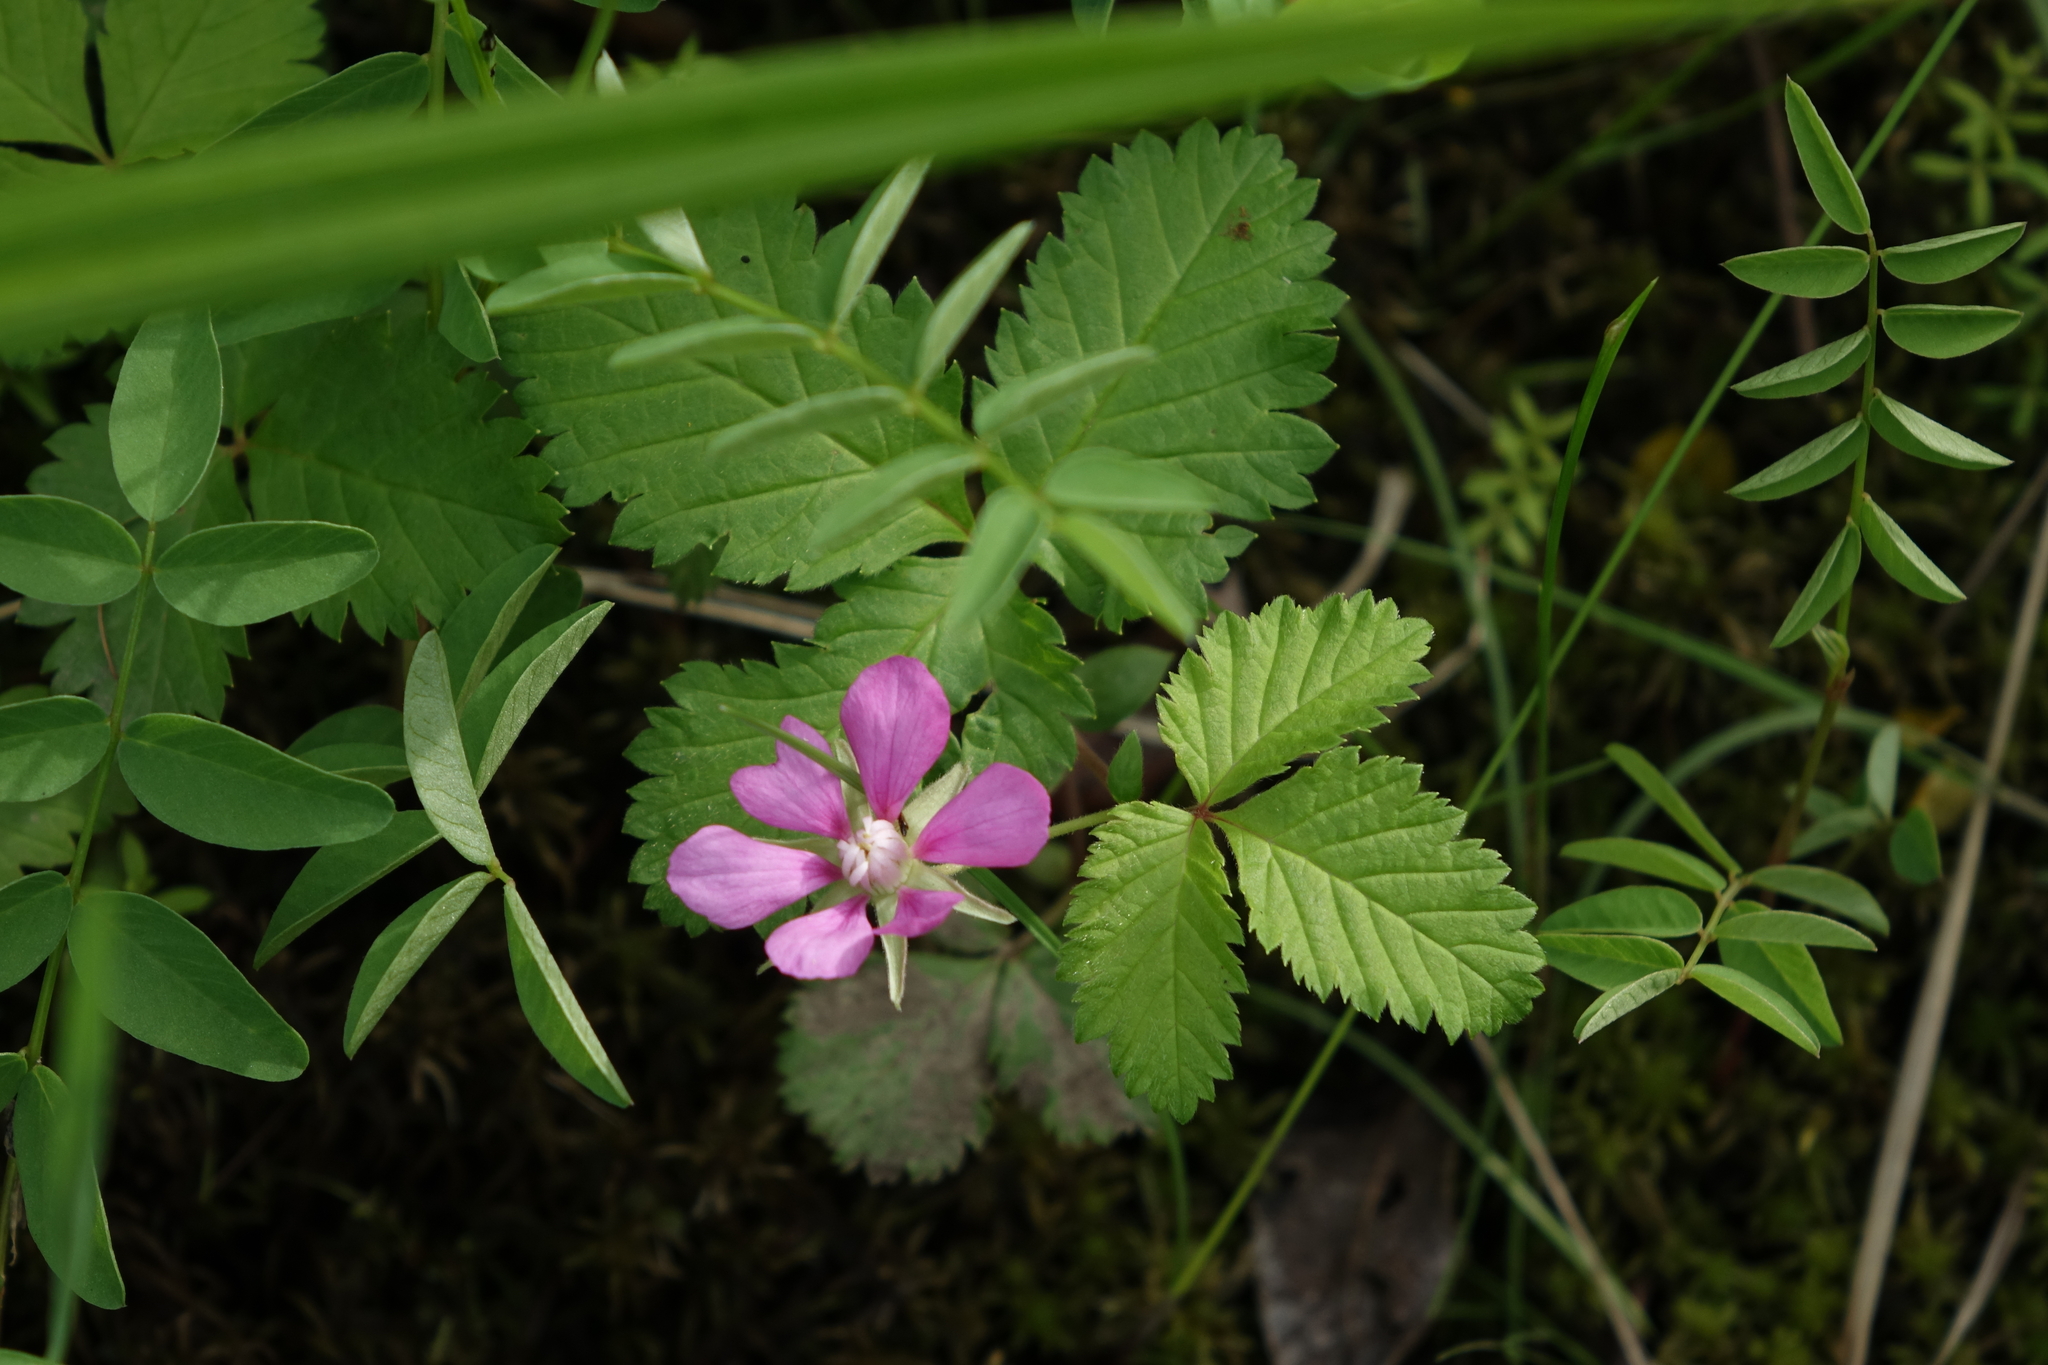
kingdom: Plantae
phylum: Tracheophyta
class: Magnoliopsida
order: Rosales
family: Rosaceae
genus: Rubus
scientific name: Rubus arcticus
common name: Arctic bramble
